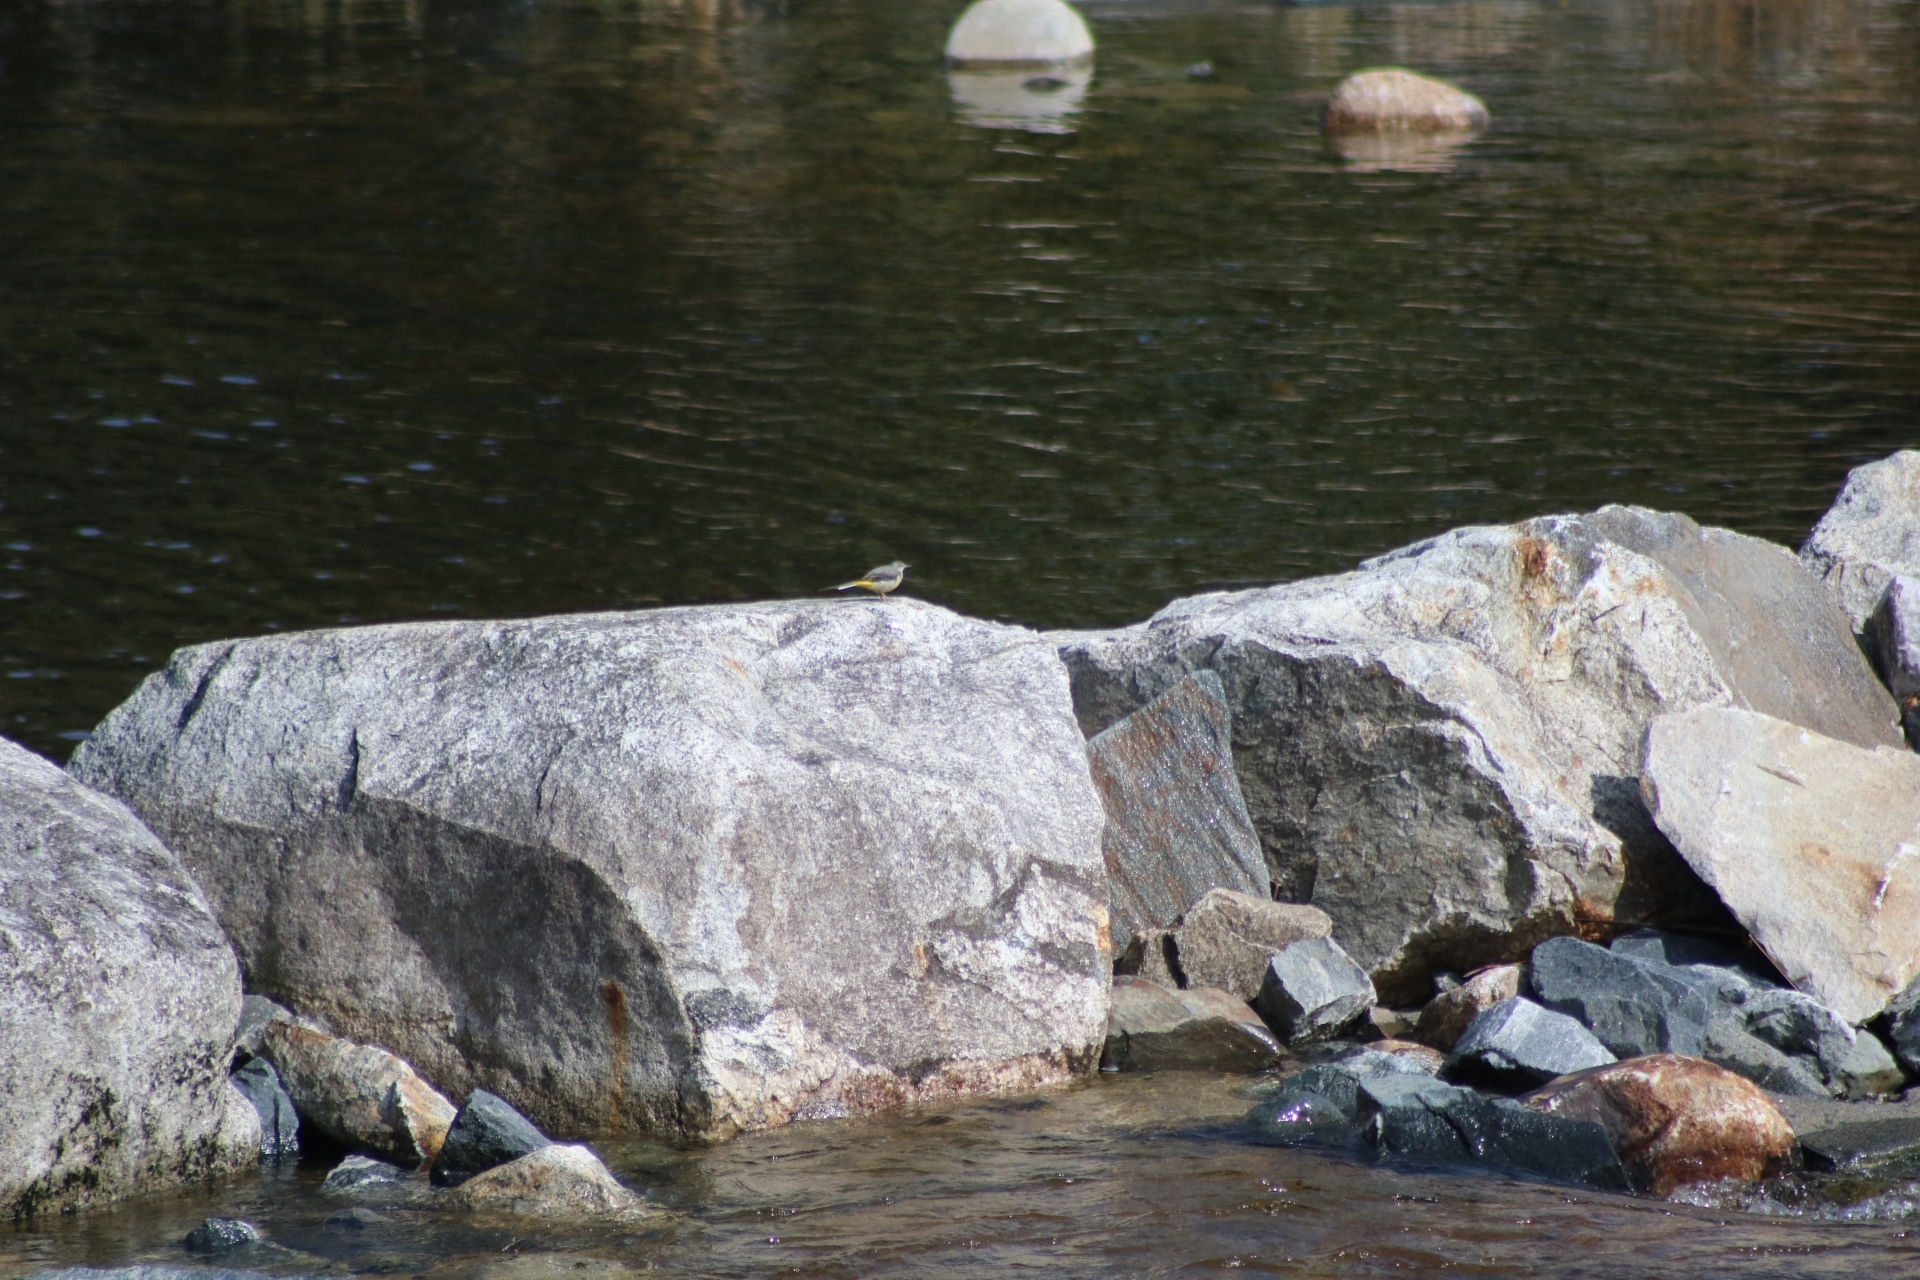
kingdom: Animalia
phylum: Chordata
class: Aves
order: Passeriformes
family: Motacillidae
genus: Motacilla
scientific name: Motacilla cinerea
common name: Grey wagtail
